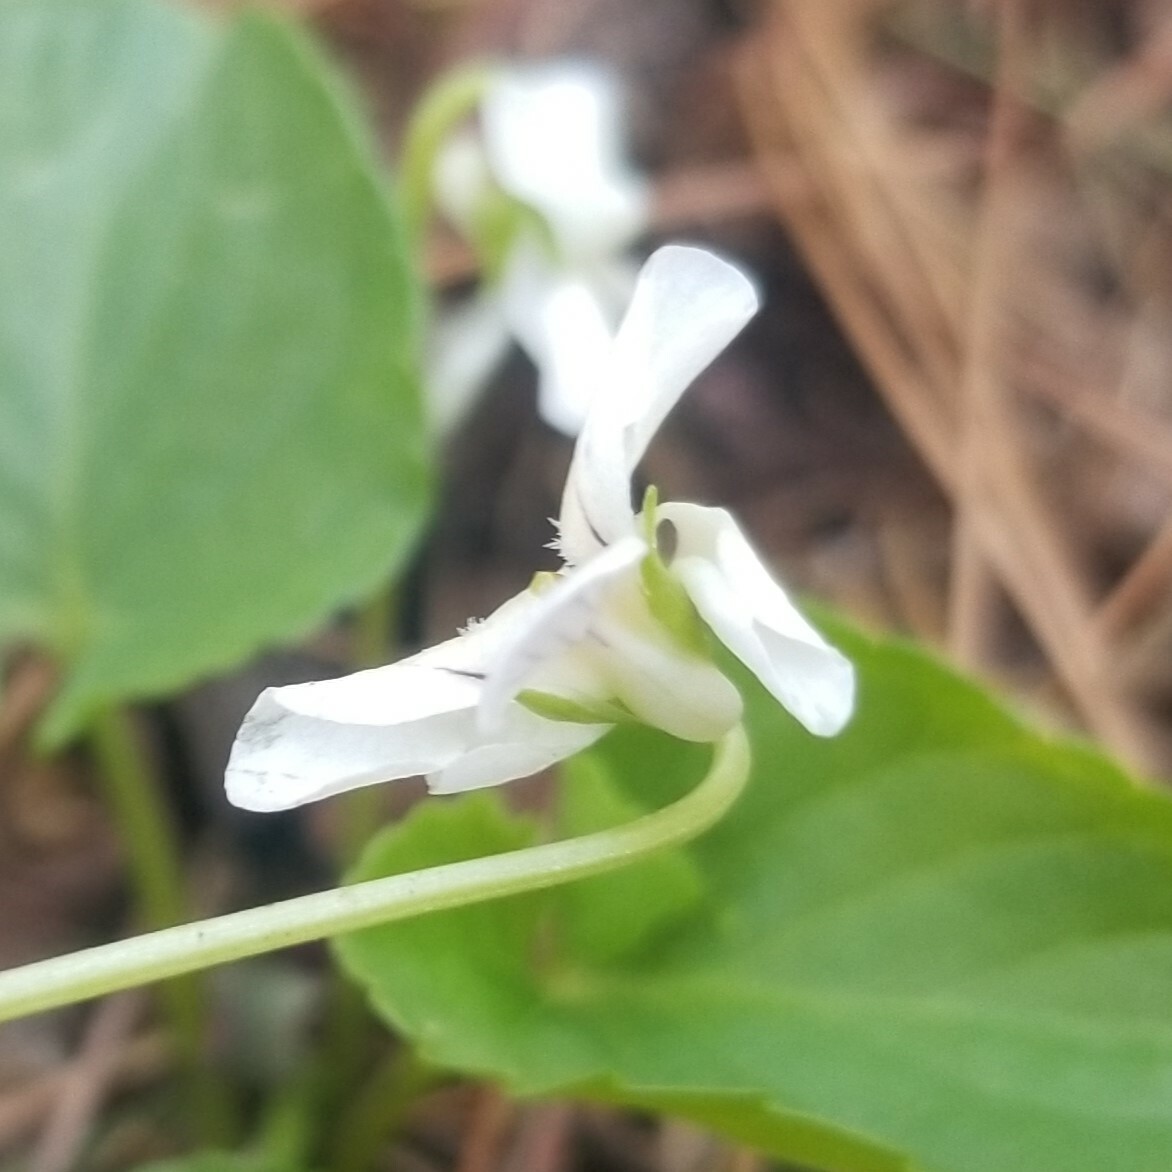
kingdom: Plantae
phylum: Tracheophyta
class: Magnoliopsida
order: Malpighiales
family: Violaceae
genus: Viola
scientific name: Viola incognita
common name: Largeleaf white violet
